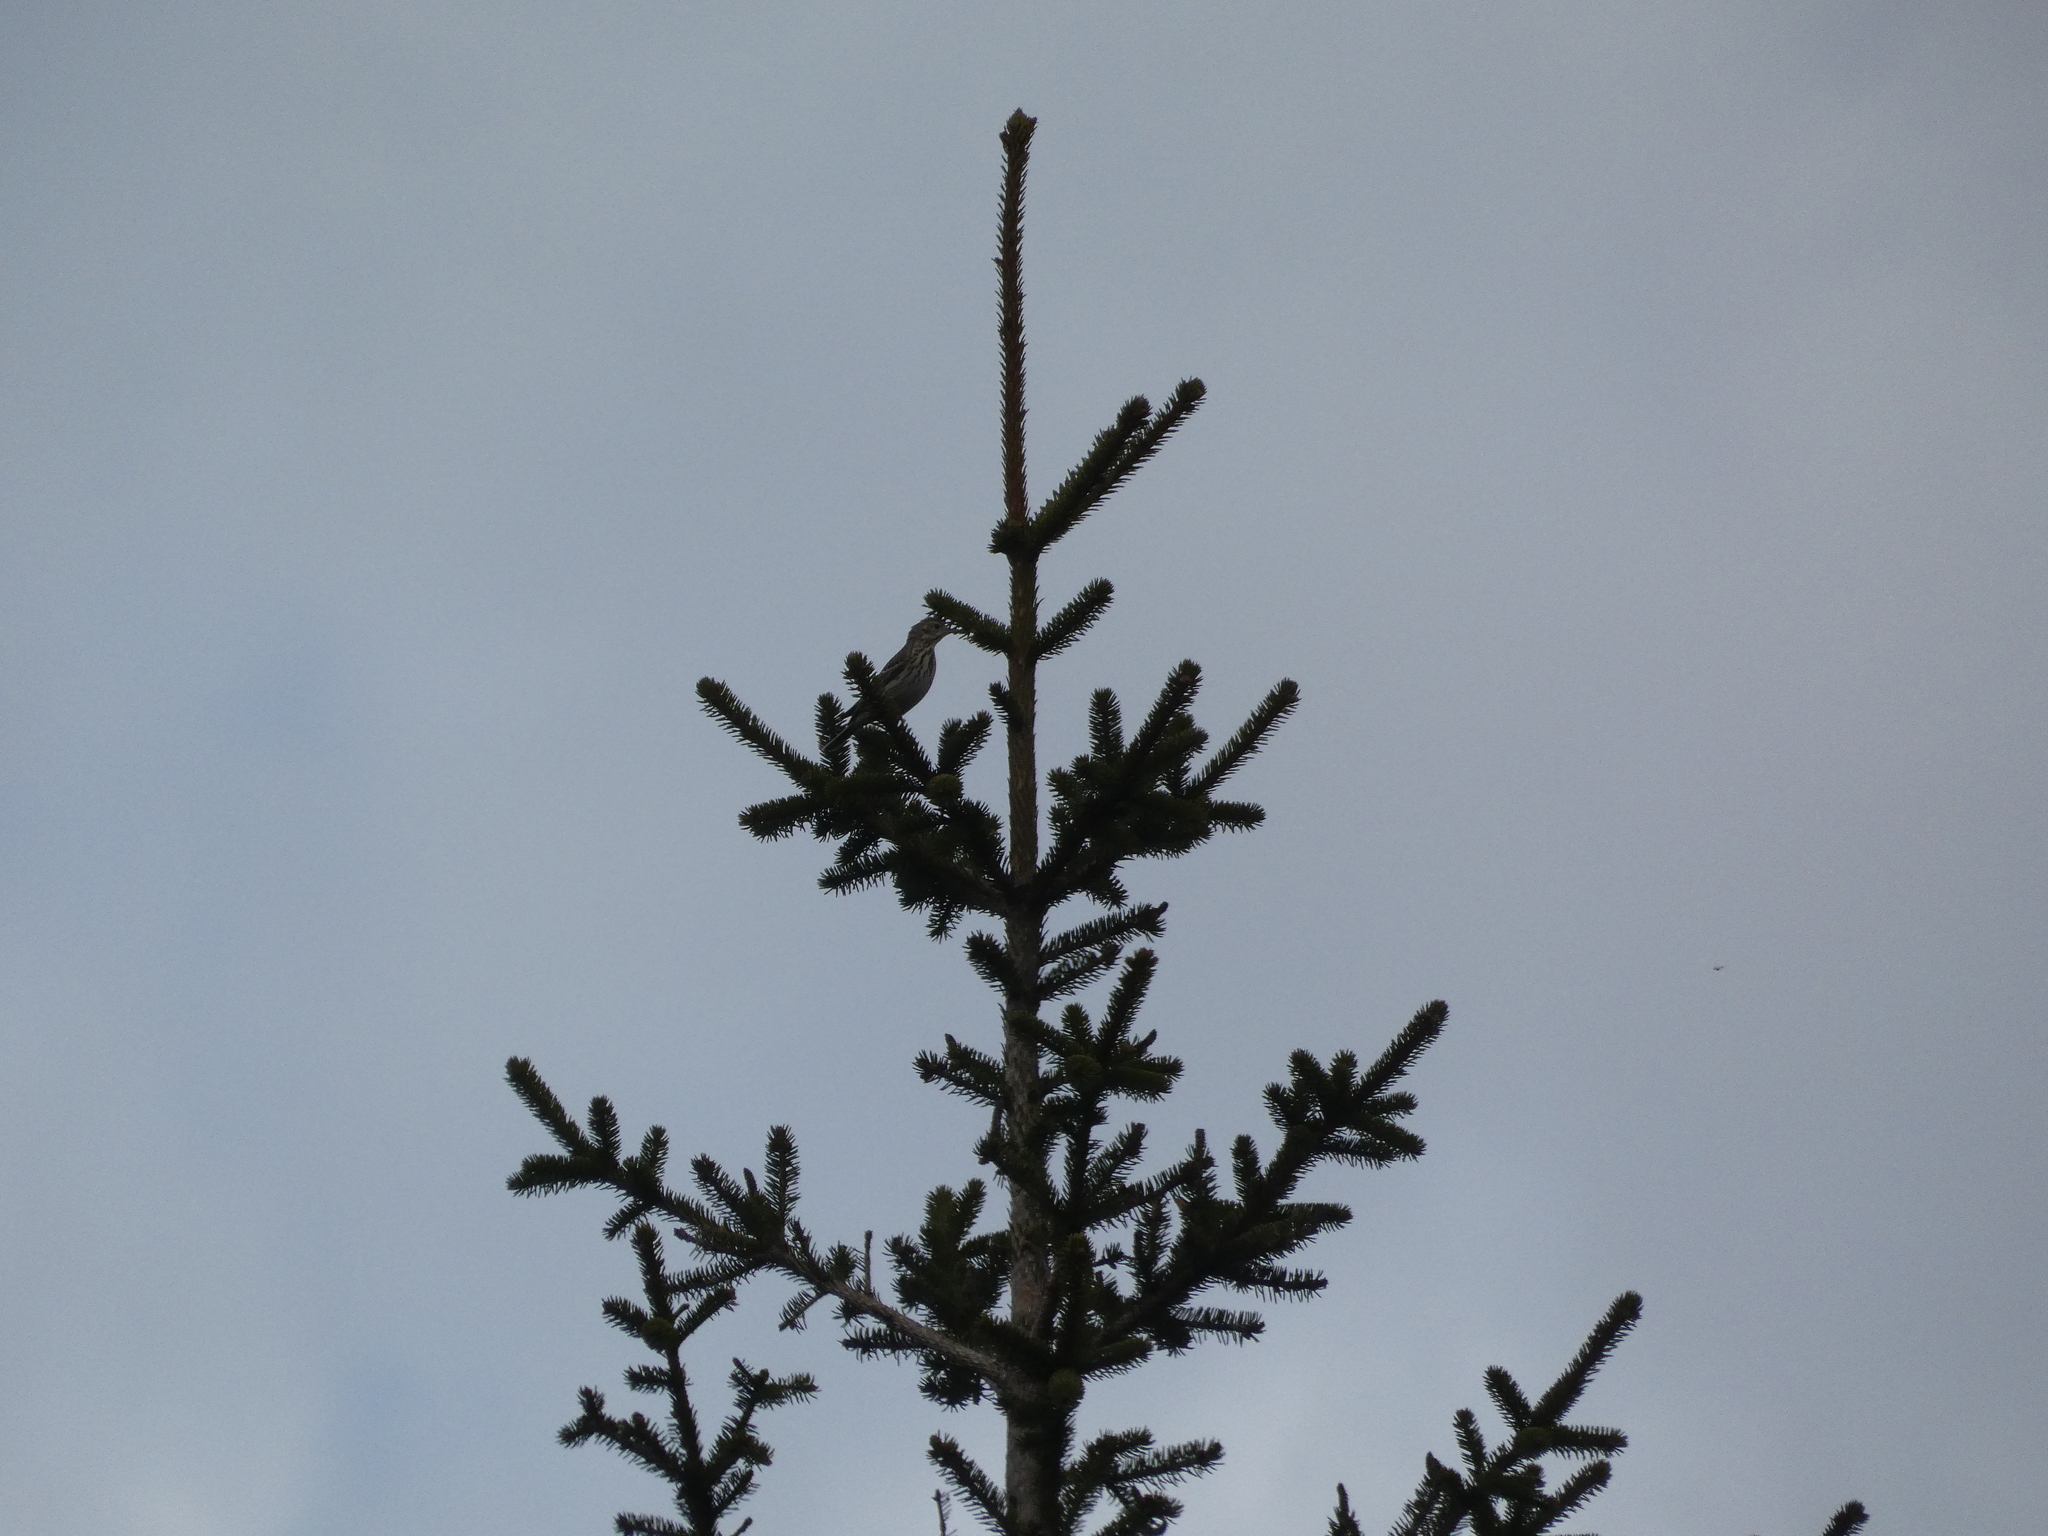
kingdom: Animalia
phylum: Chordata
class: Aves
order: Passeriformes
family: Motacillidae
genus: Anthus
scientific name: Anthus trivialis
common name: Tree pipit
